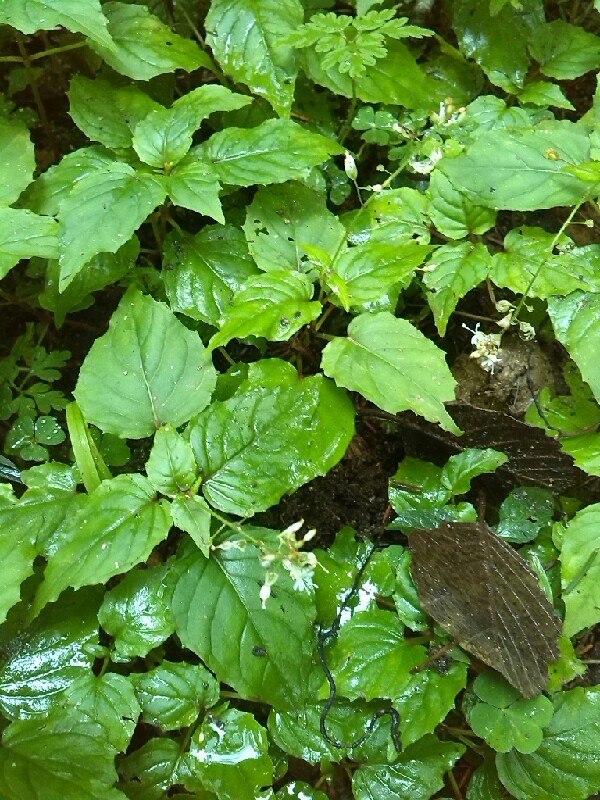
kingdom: Plantae
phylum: Tracheophyta
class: Magnoliopsida
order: Myrtales
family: Onagraceae
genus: Circaea
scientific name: Circaea alpina
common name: Alpine enchanter's-nightshade
